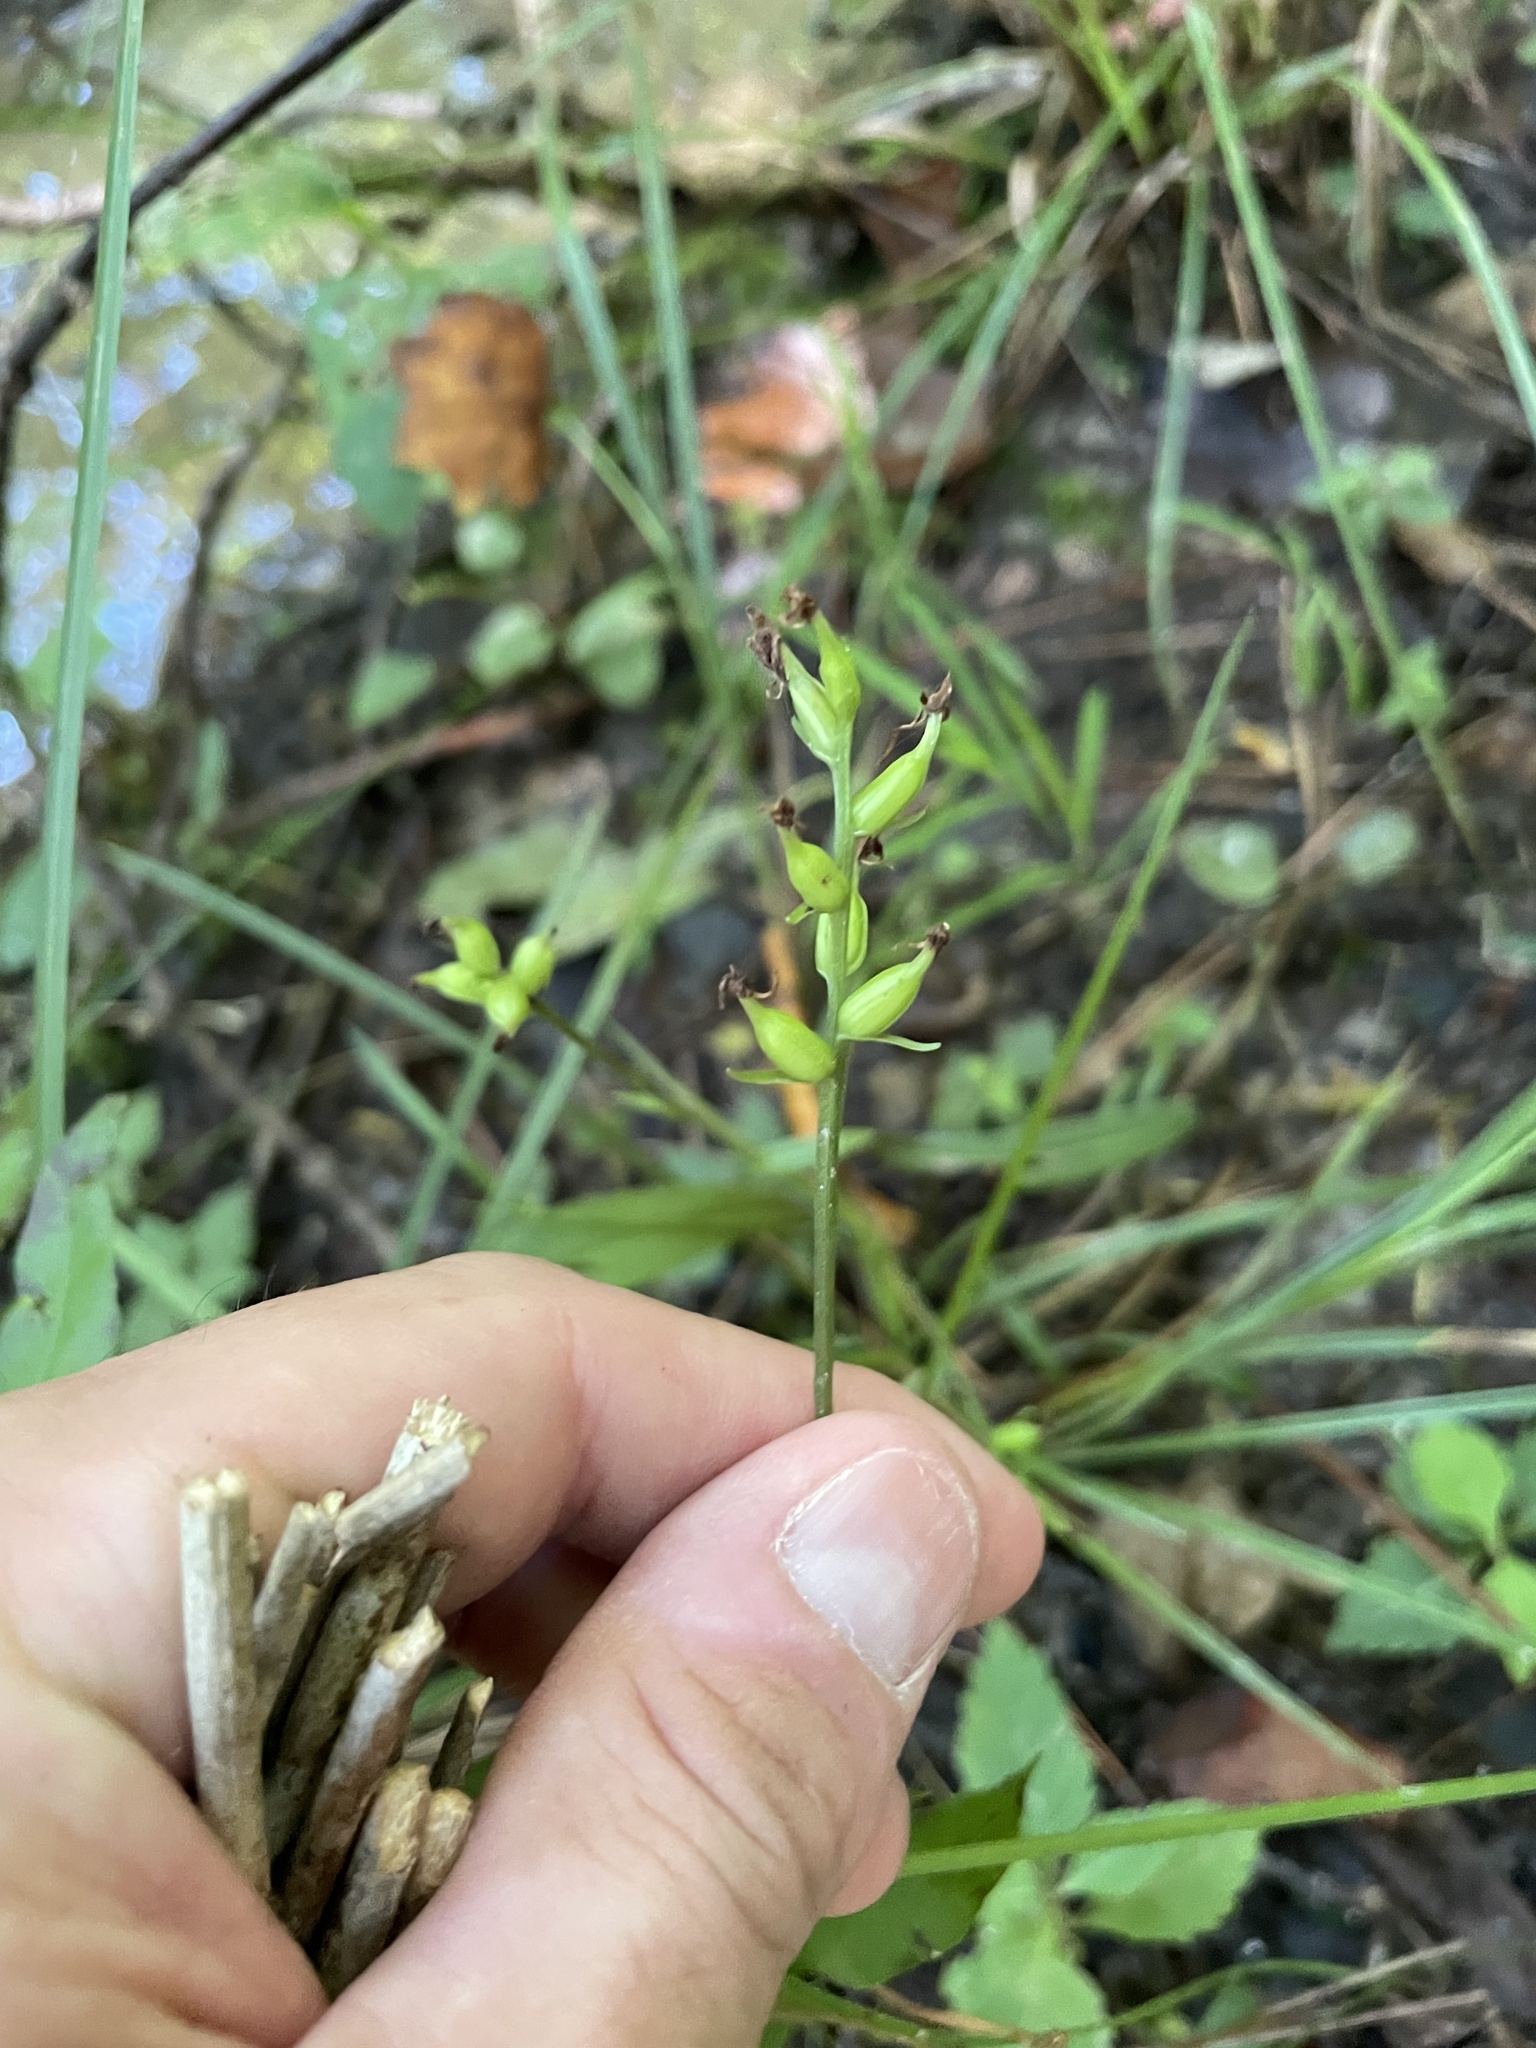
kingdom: Plantae
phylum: Tracheophyta
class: Liliopsida
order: Asparagales
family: Orchidaceae
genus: Platanthera
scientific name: Platanthera clavellata
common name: Club-spur orchid
